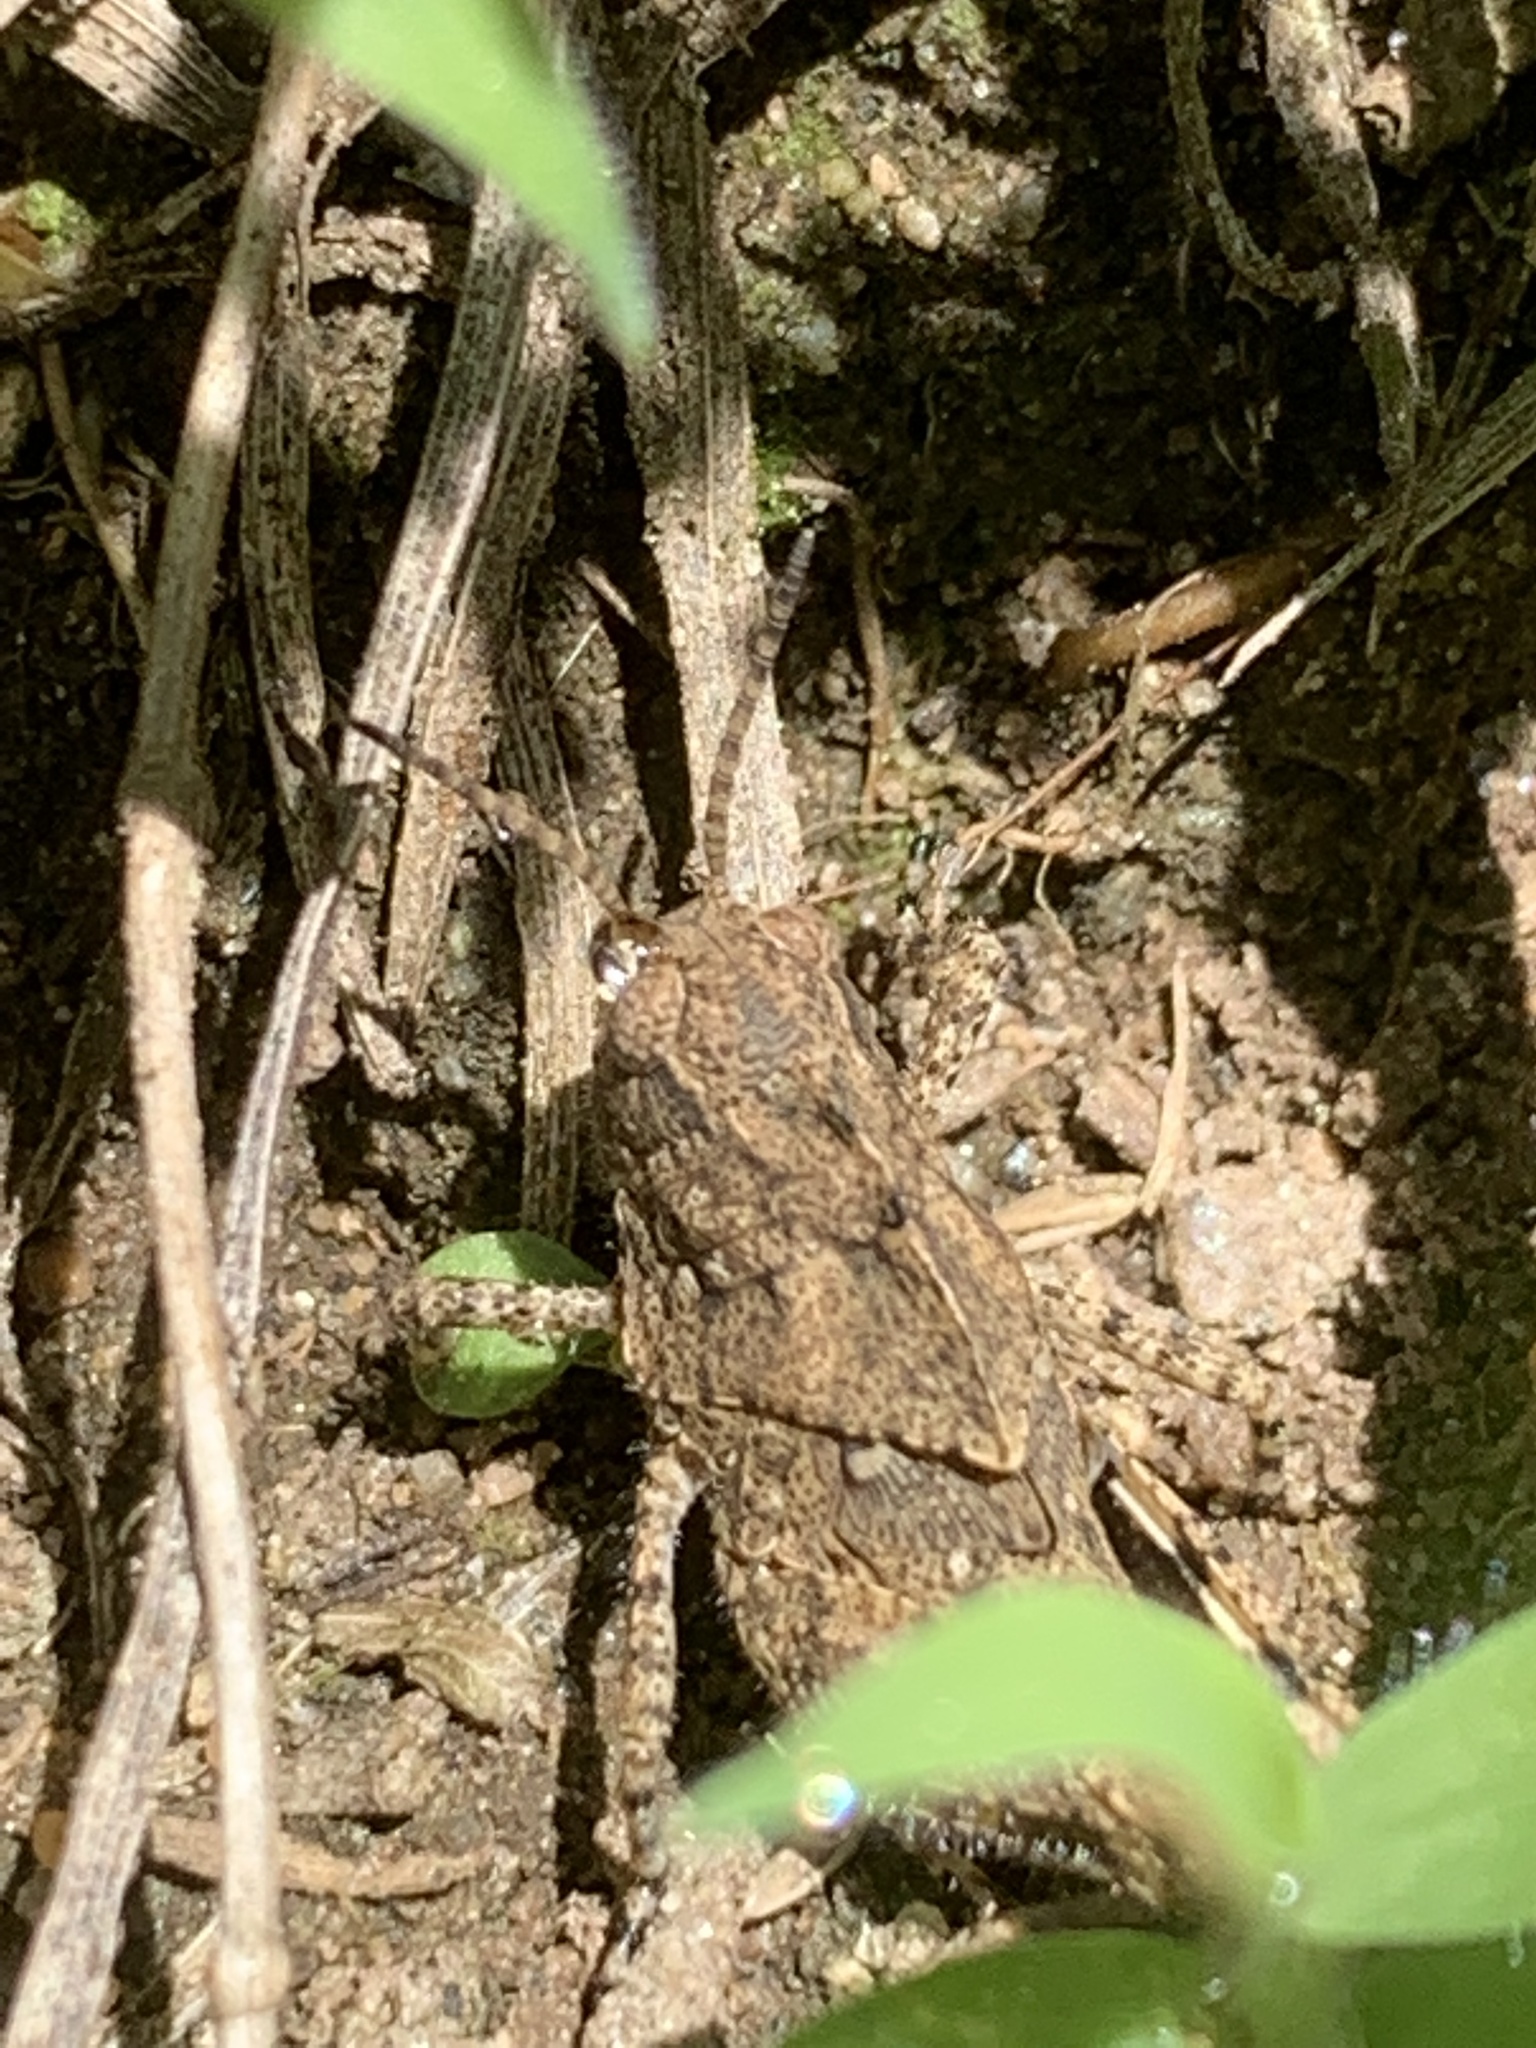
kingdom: Animalia
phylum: Arthropoda
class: Insecta
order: Orthoptera
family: Acrididae
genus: Dissosteira
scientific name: Dissosteira carolina
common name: Carolina grasshopper
